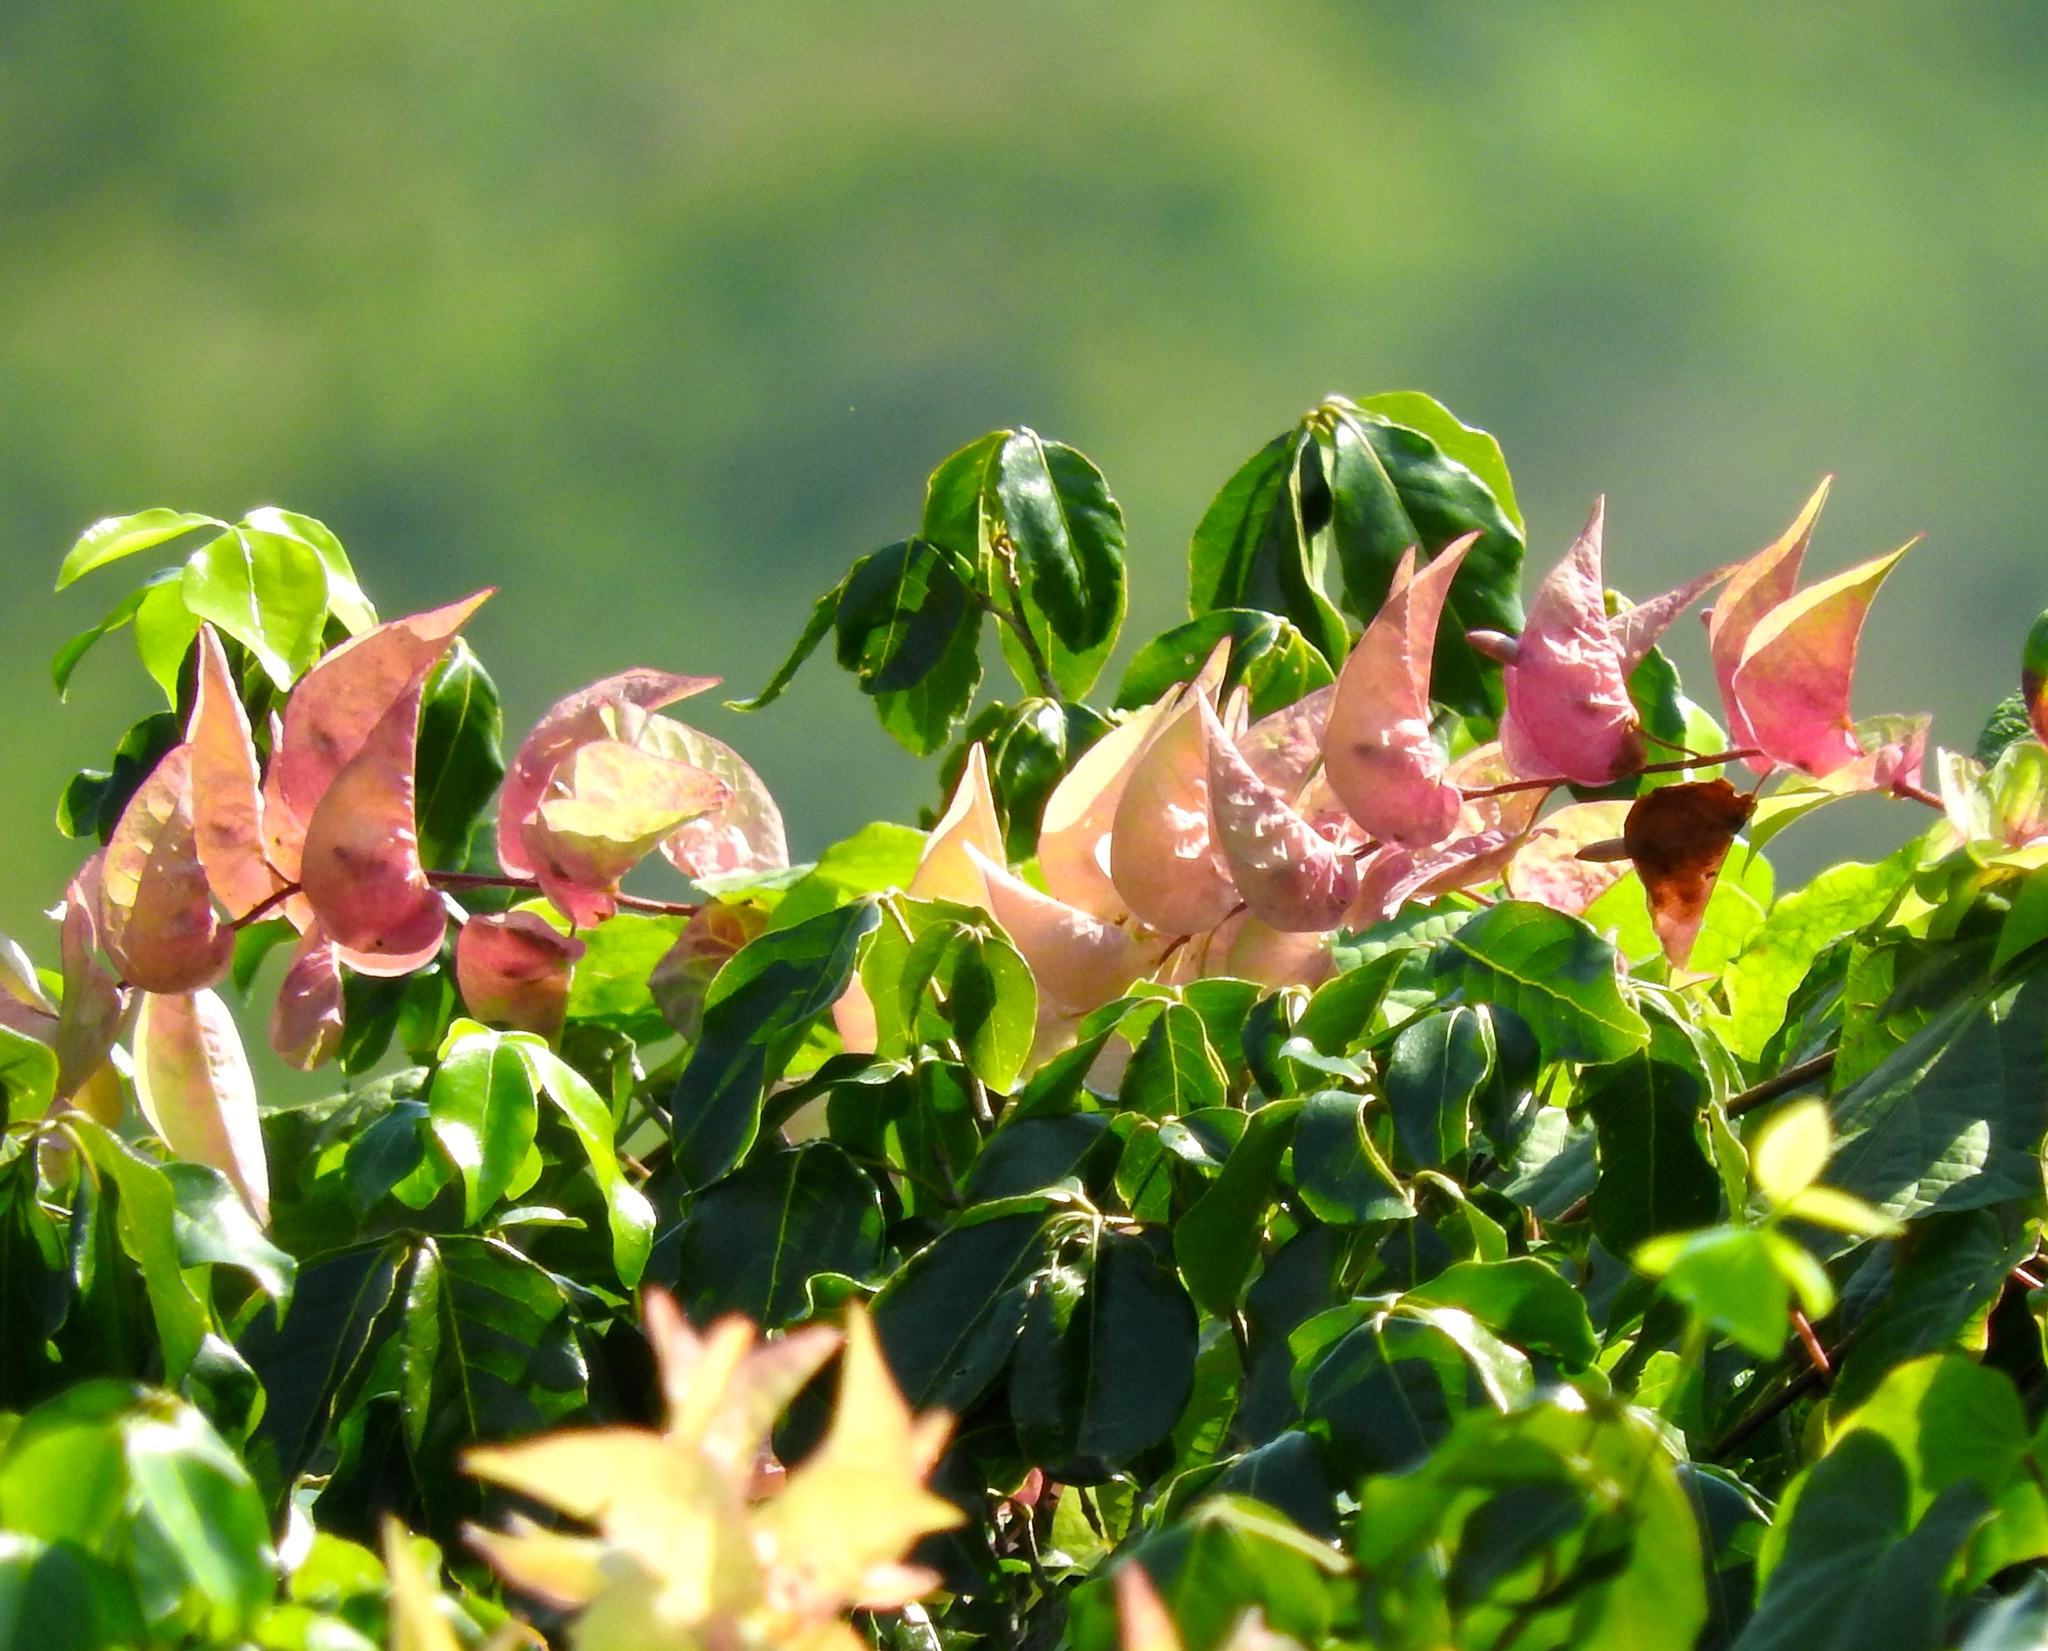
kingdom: Plantae
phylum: Tracheophyta
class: Magnoliopsida
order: Solanales
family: Convolvulaceae
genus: Ipomoea
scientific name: Ipomoea bracteata
